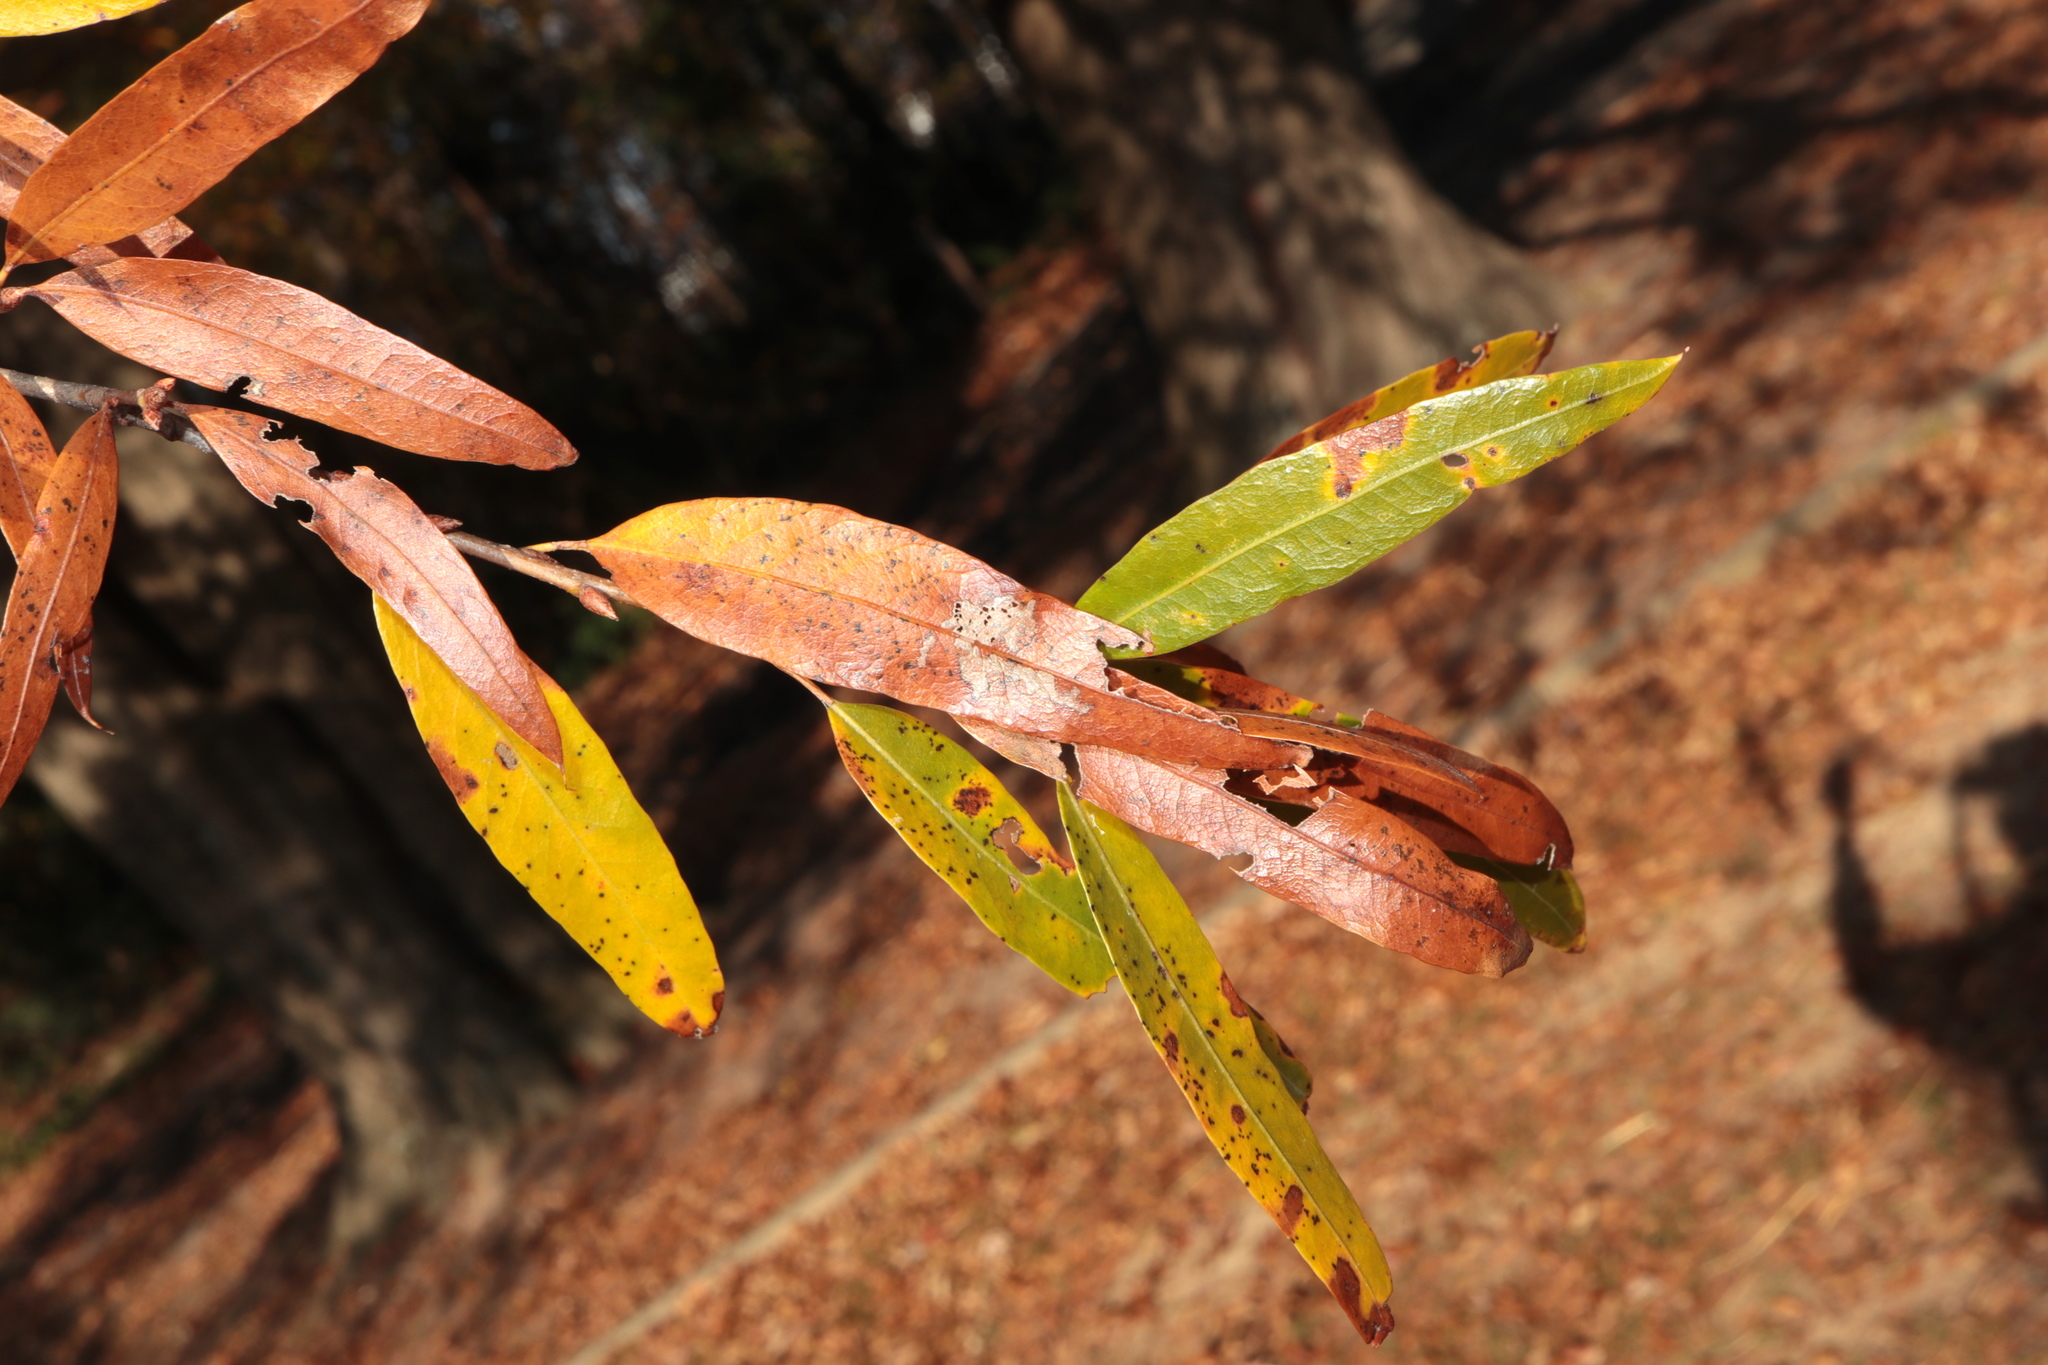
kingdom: Plantae
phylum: Tracheophyta
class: Magnoliopsida
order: Fagales
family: Fagaceae
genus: Quercus
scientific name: Quercus phellos
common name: Willow oak
